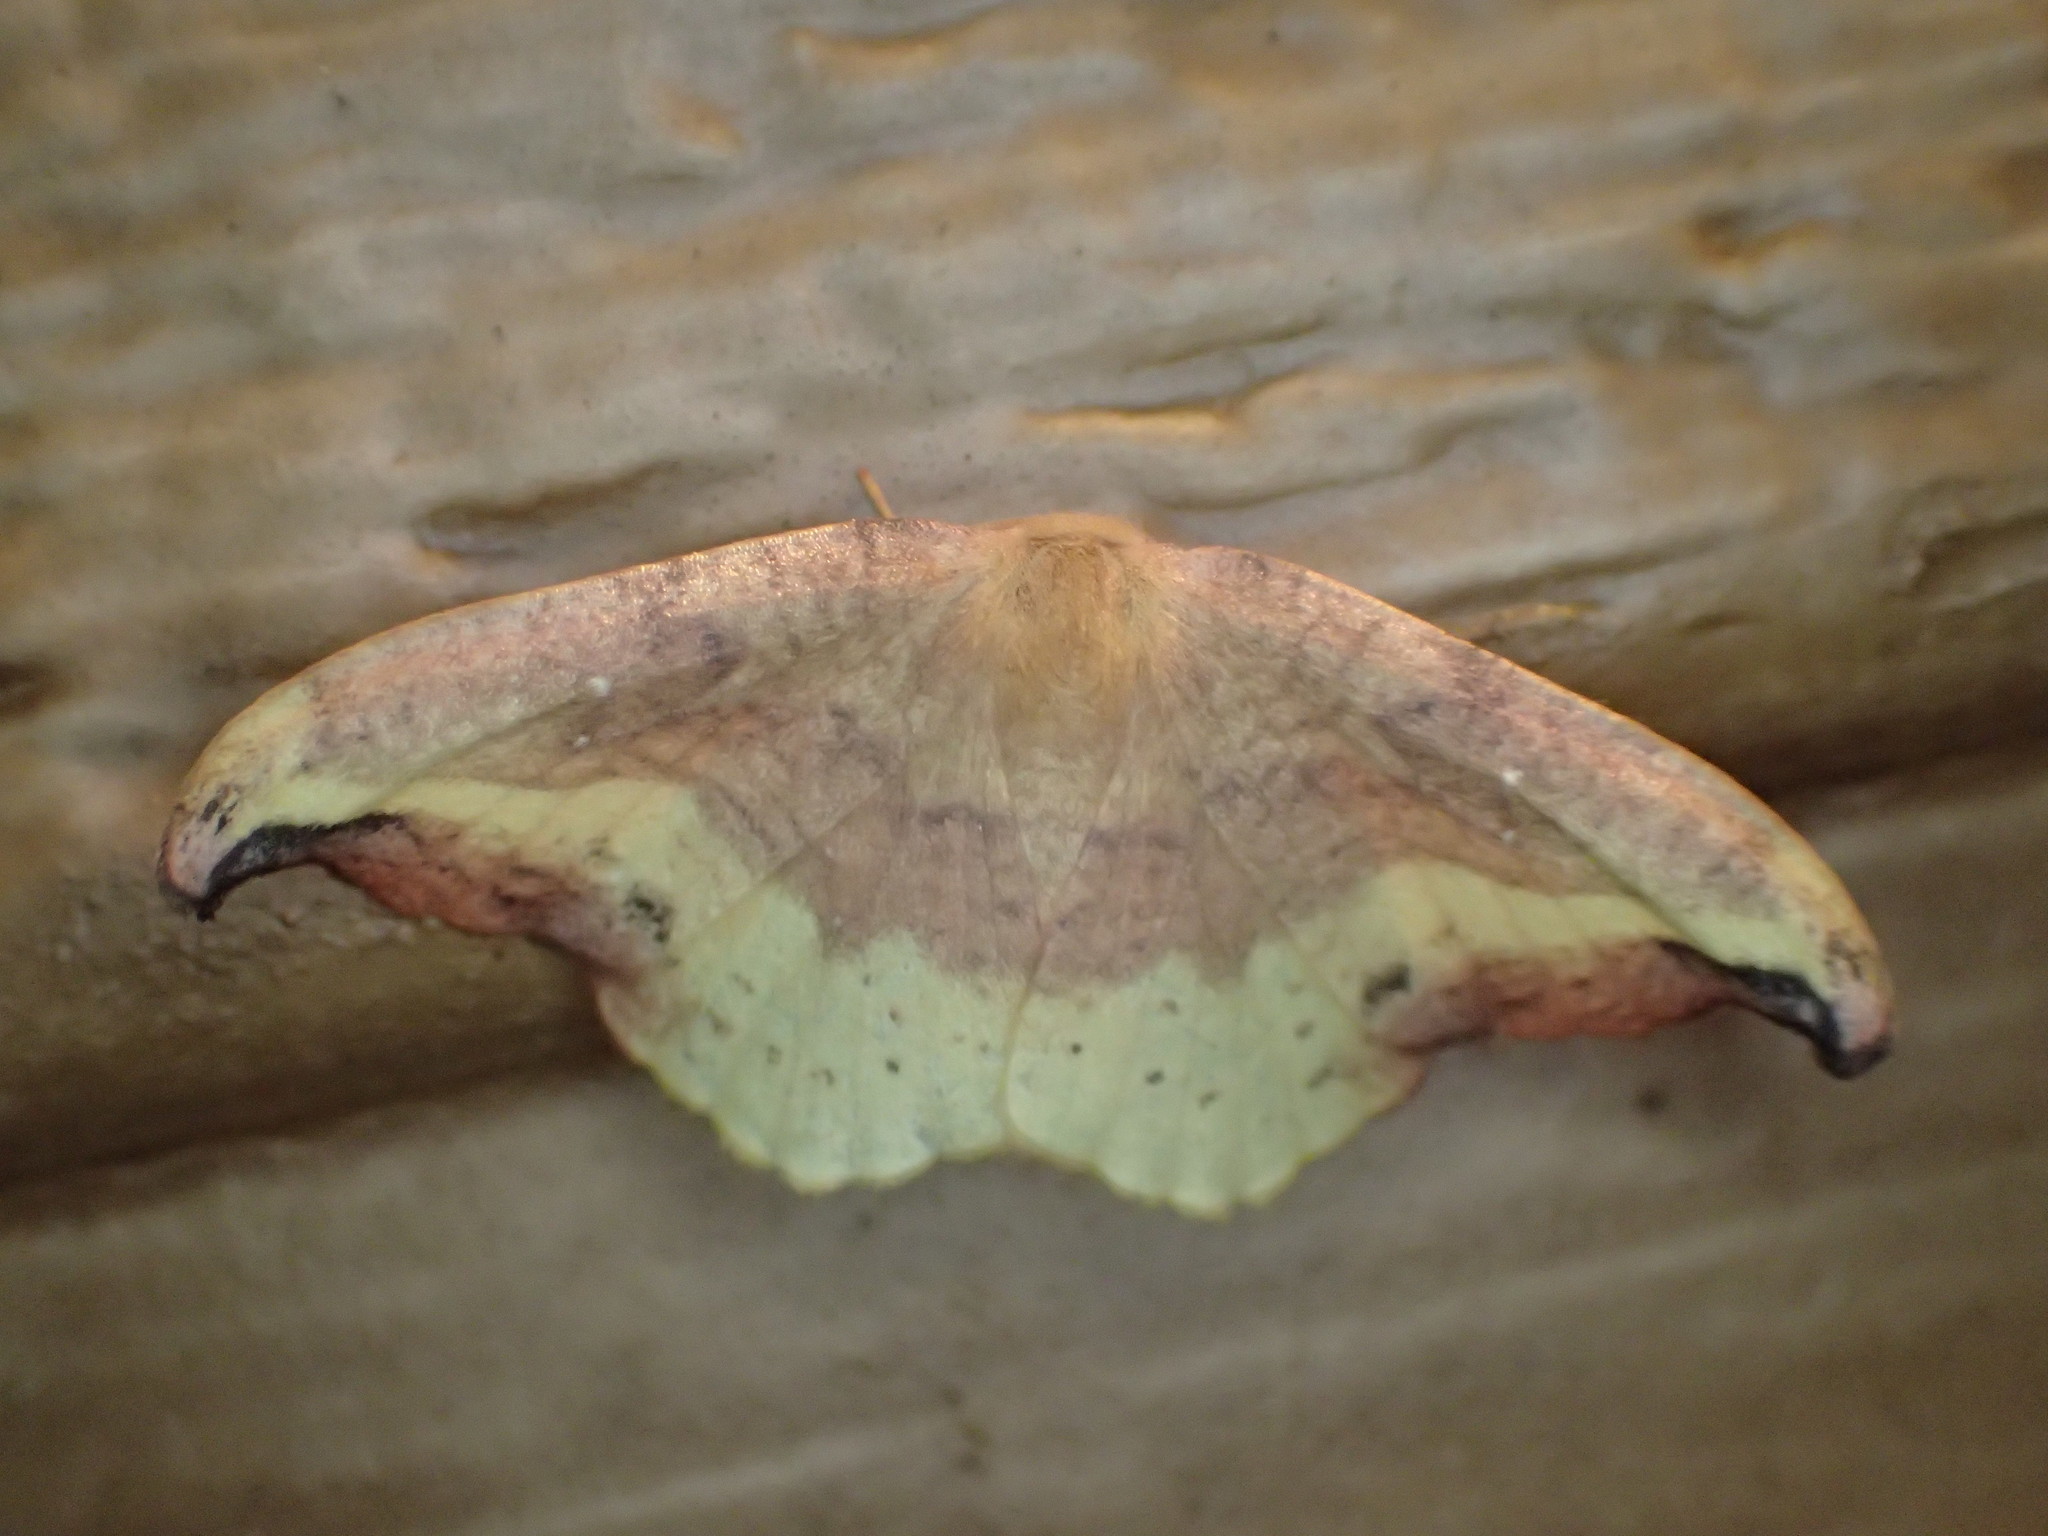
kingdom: Animalia
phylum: Arthropoda
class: Insecta
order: Lepidoptera
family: Drepanidae
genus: Oreta
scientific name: Oreta rosea
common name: Rose hooktip
